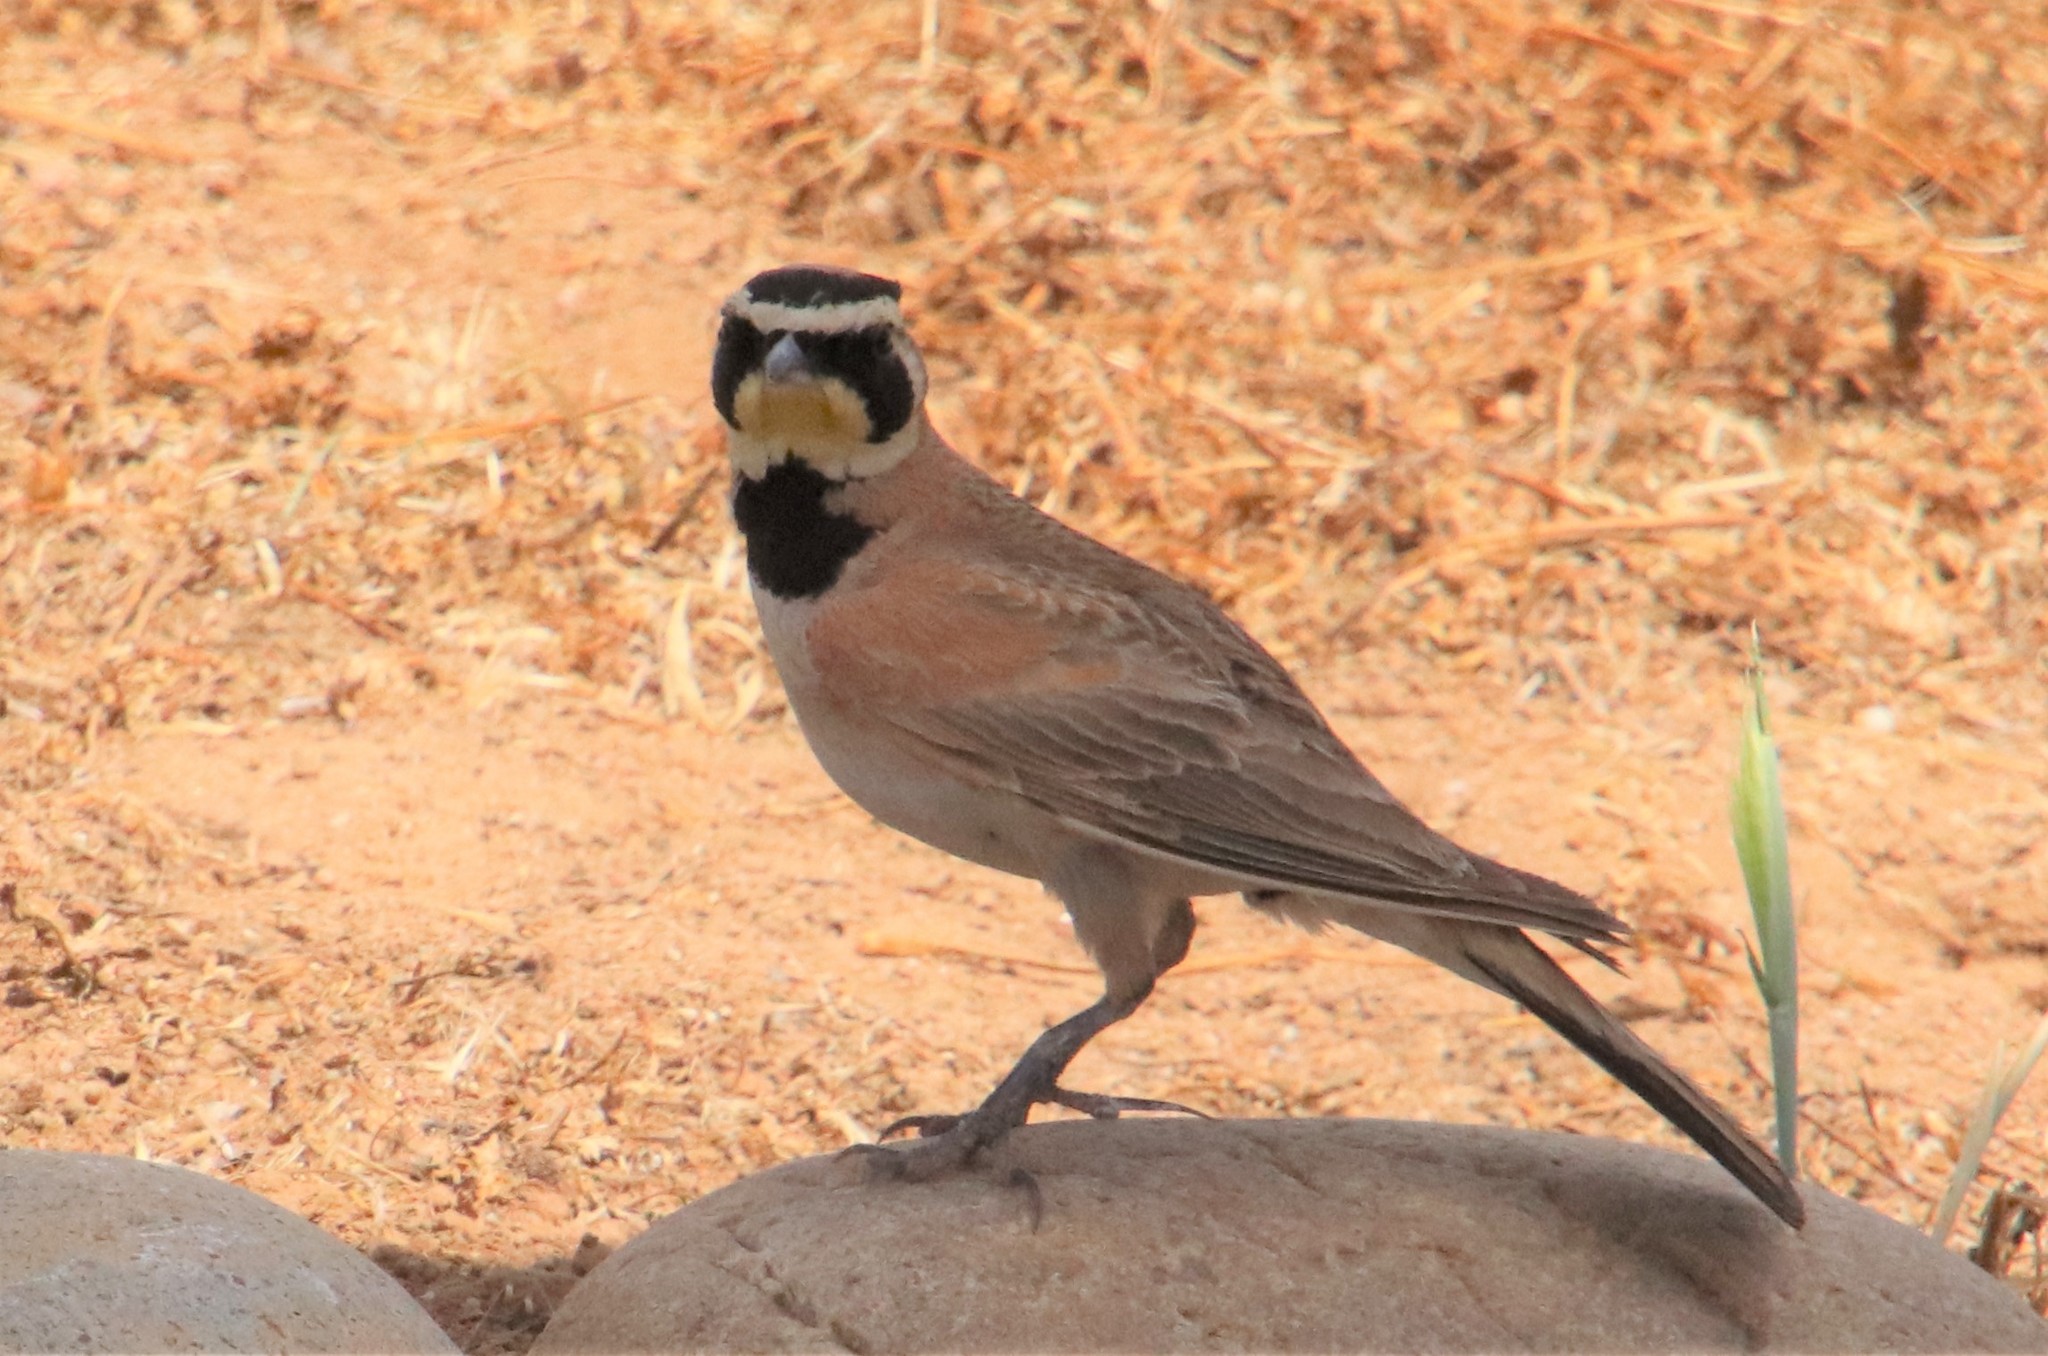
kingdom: Animalia
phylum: Chordata
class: Aves
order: Passeriformes
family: Alaudidae
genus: Eremophila
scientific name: Eremophila alpestris
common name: Horned lark
